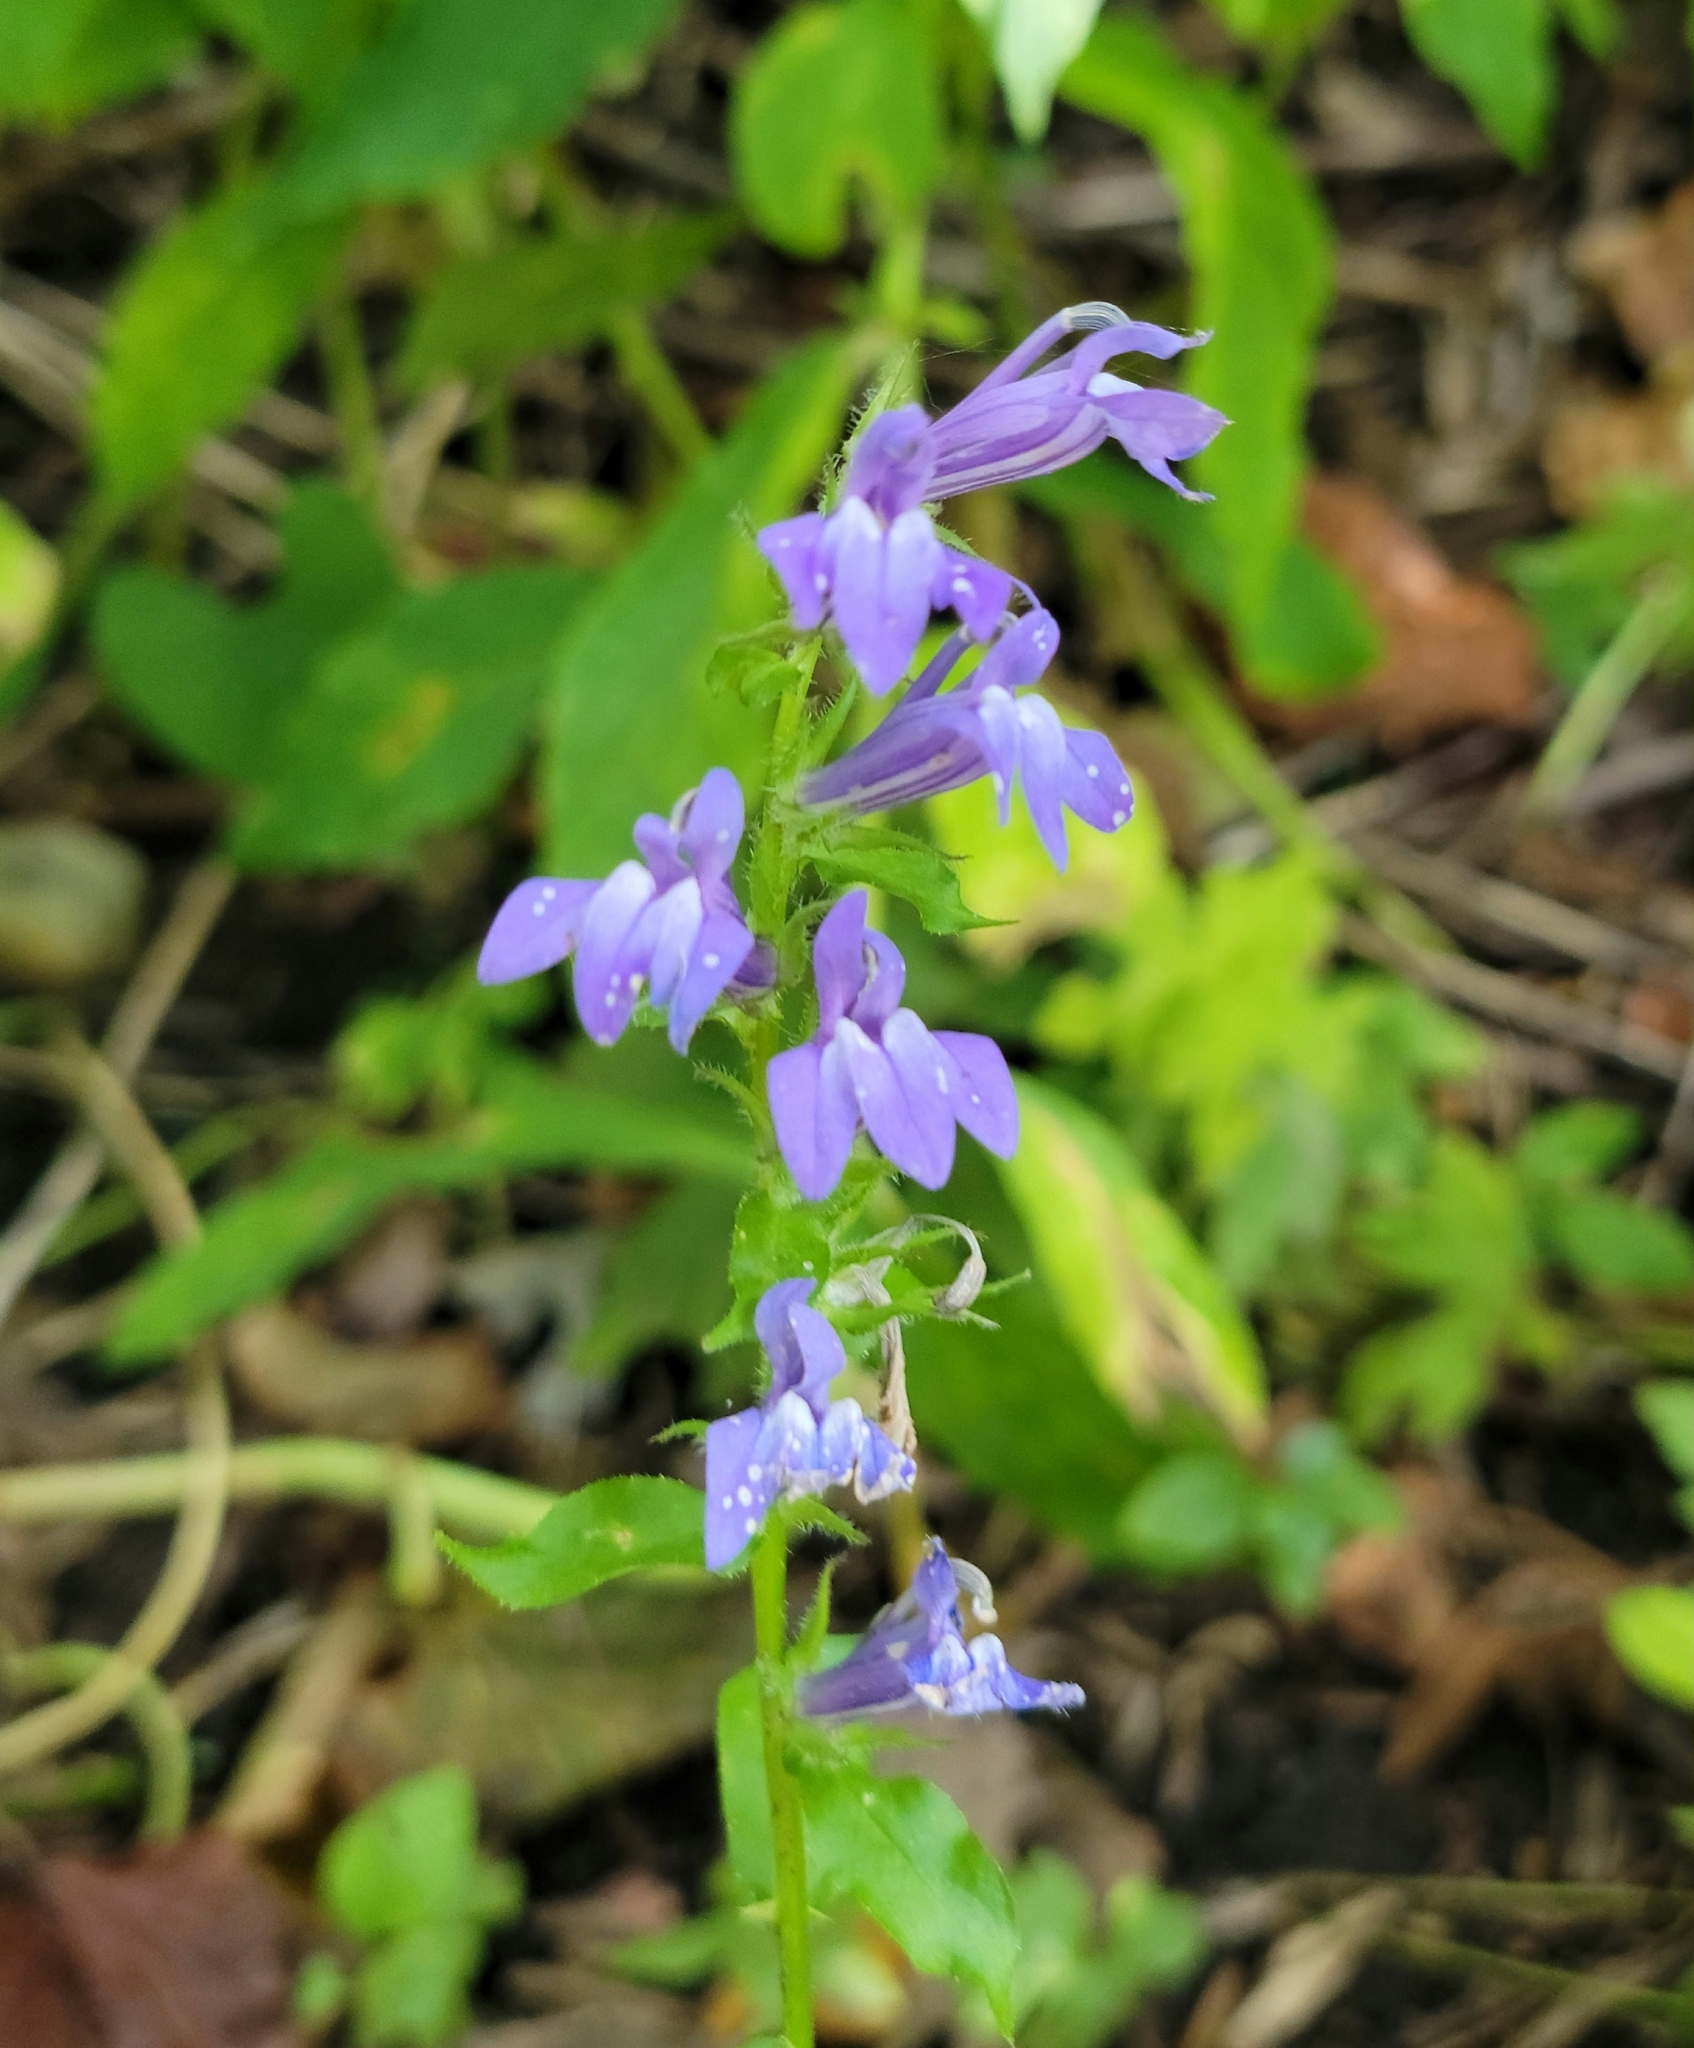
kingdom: Plantae
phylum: Tracheophyta
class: Magnoliopsida
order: Asterales
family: Campanulaceae
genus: Lobelia
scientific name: Lobelia siphilitica
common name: Great lobelia
